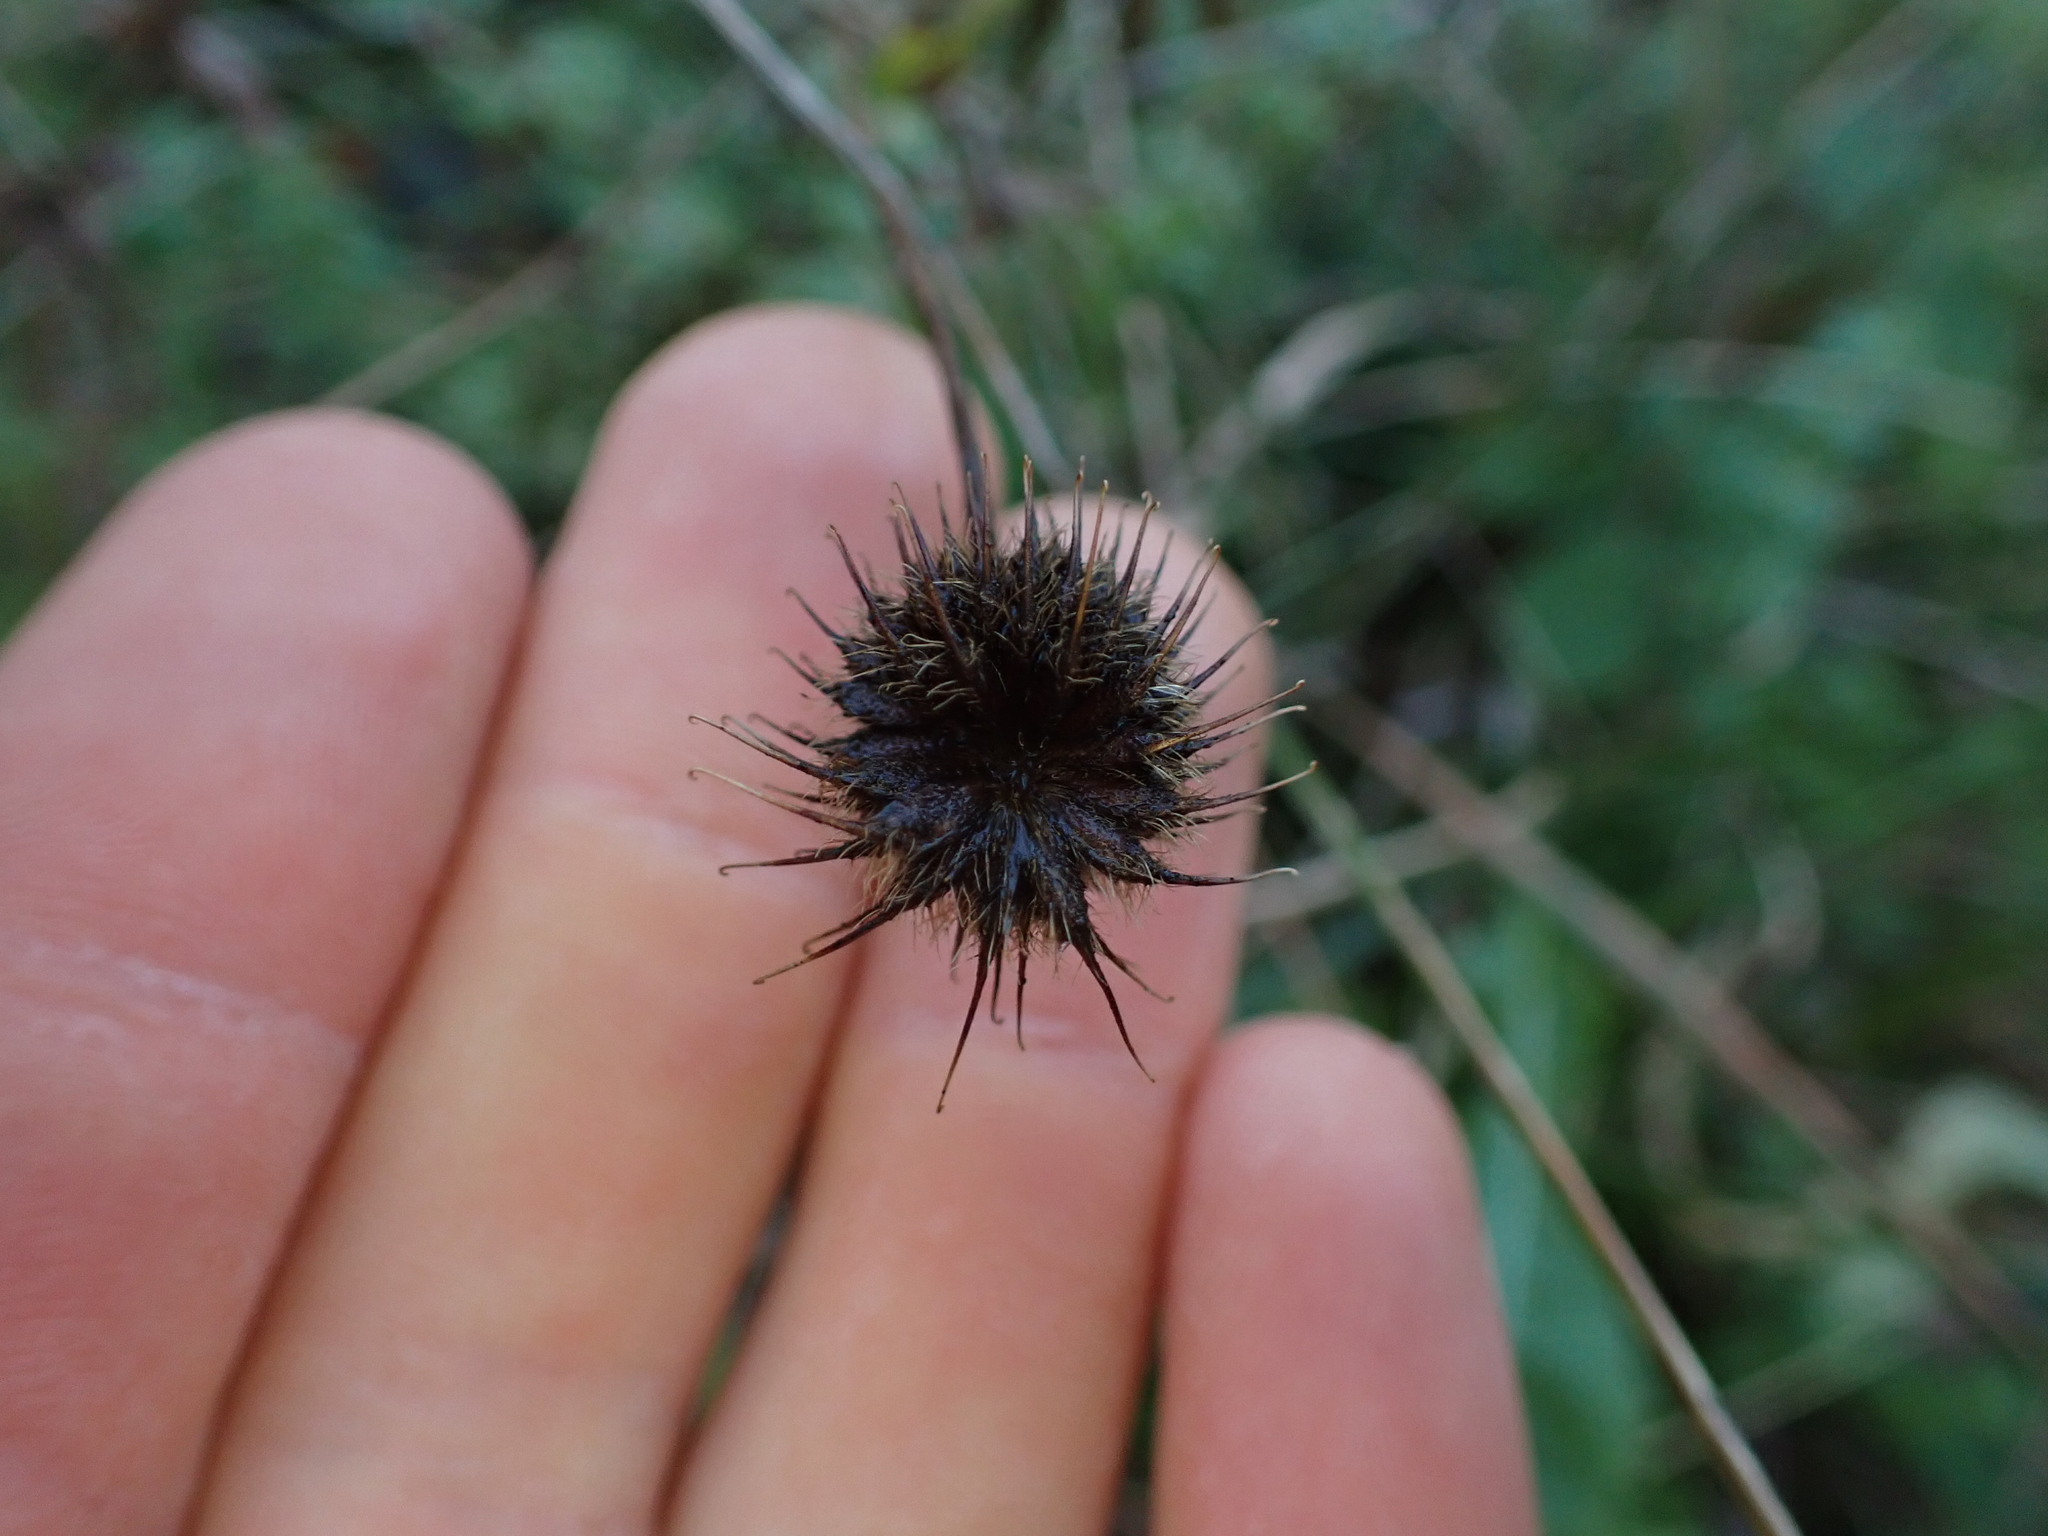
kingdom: Plantae
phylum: Tracheophyta
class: Magnoliopsida
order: Rosales
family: Rosaceae
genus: Geum
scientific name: Geum urbanum
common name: Wood avens
